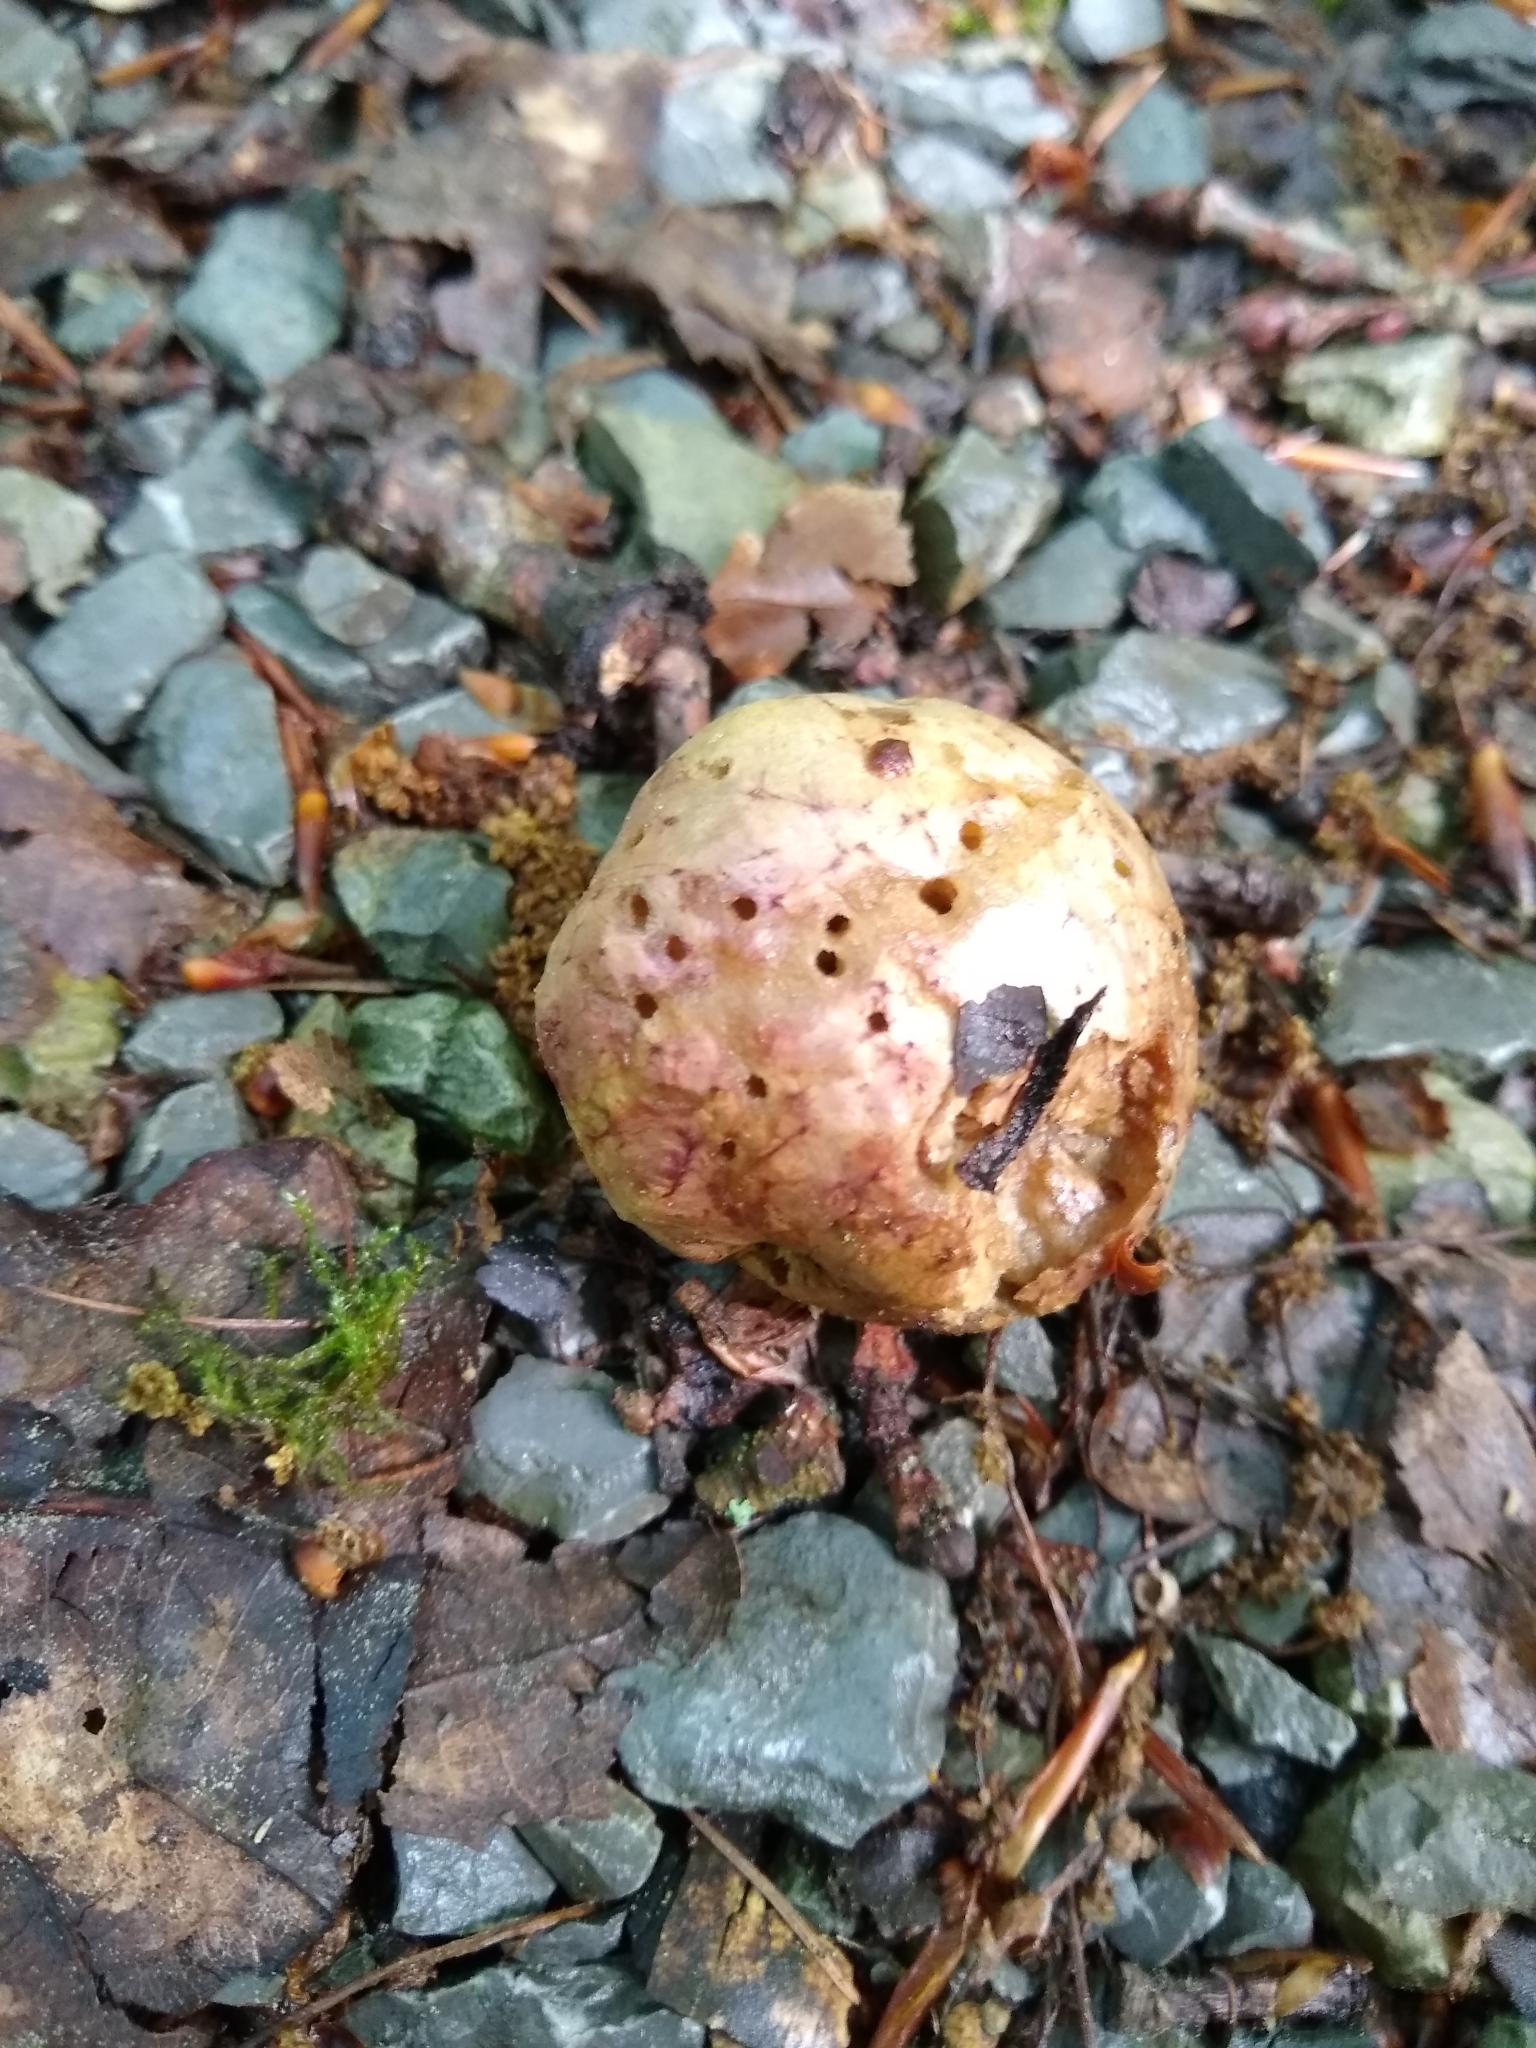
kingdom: Animalia
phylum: Arthropoda
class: Insecta
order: Hymenoptera
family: Cynipidae
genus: Biorhiza
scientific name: Biorhiza pallida
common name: Oak apple
